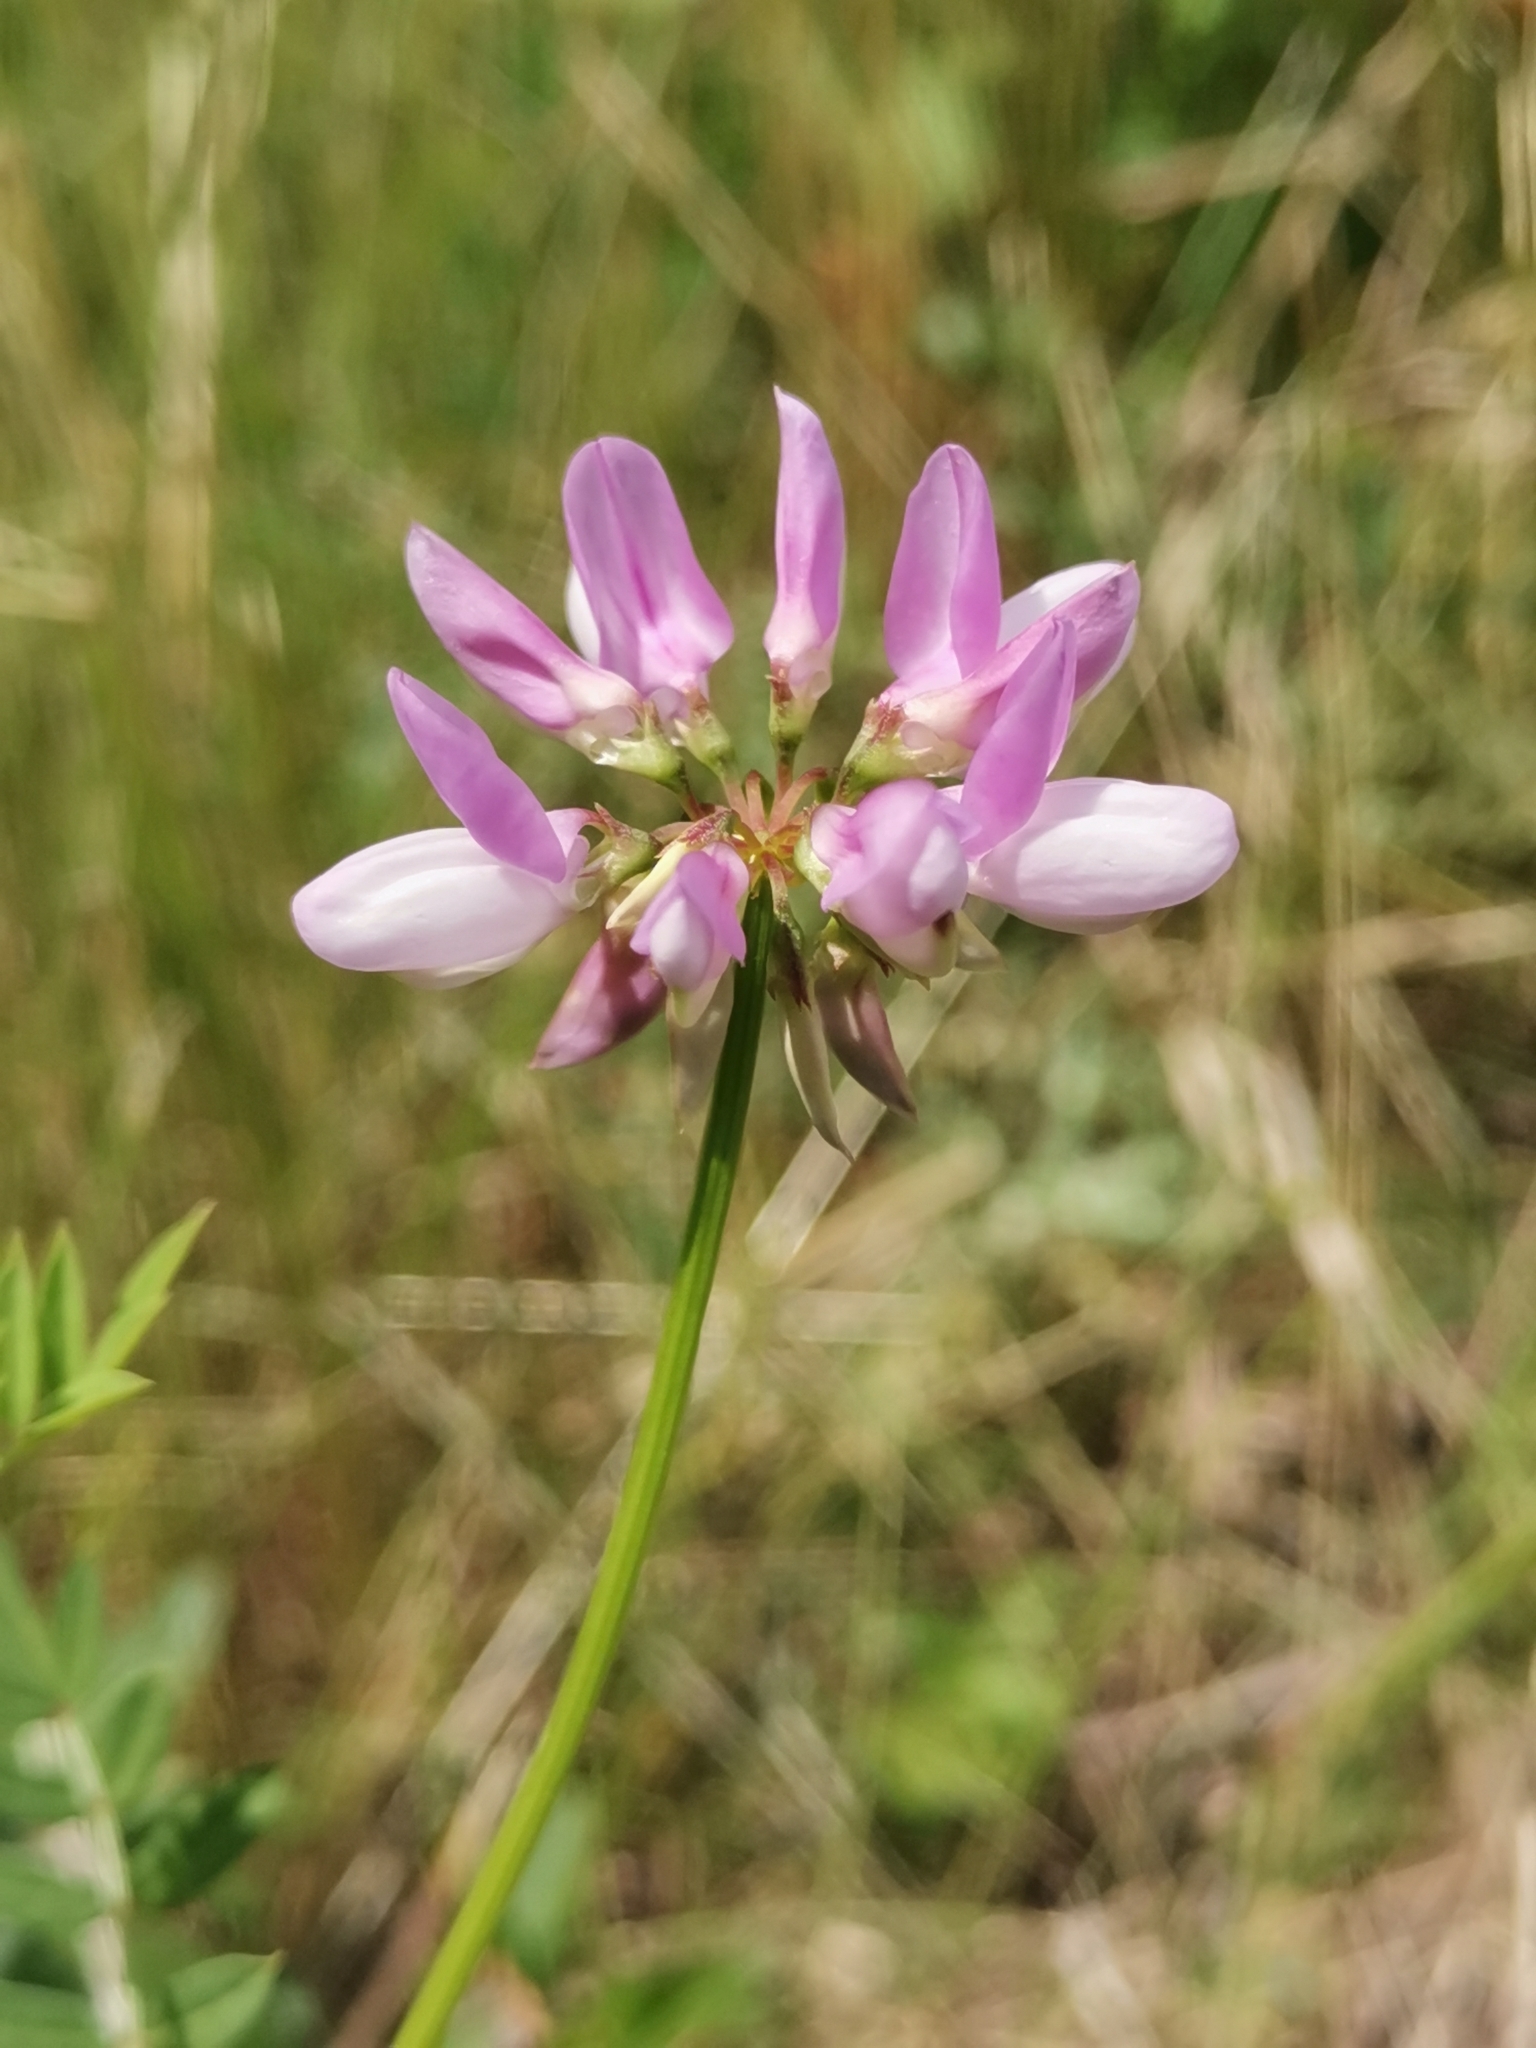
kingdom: Plantae
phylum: Tracheophyta
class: Magnoliopsida
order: Fabales
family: Fabaceae
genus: Coronilla
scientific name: Coronilla varia
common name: Crownvetch
